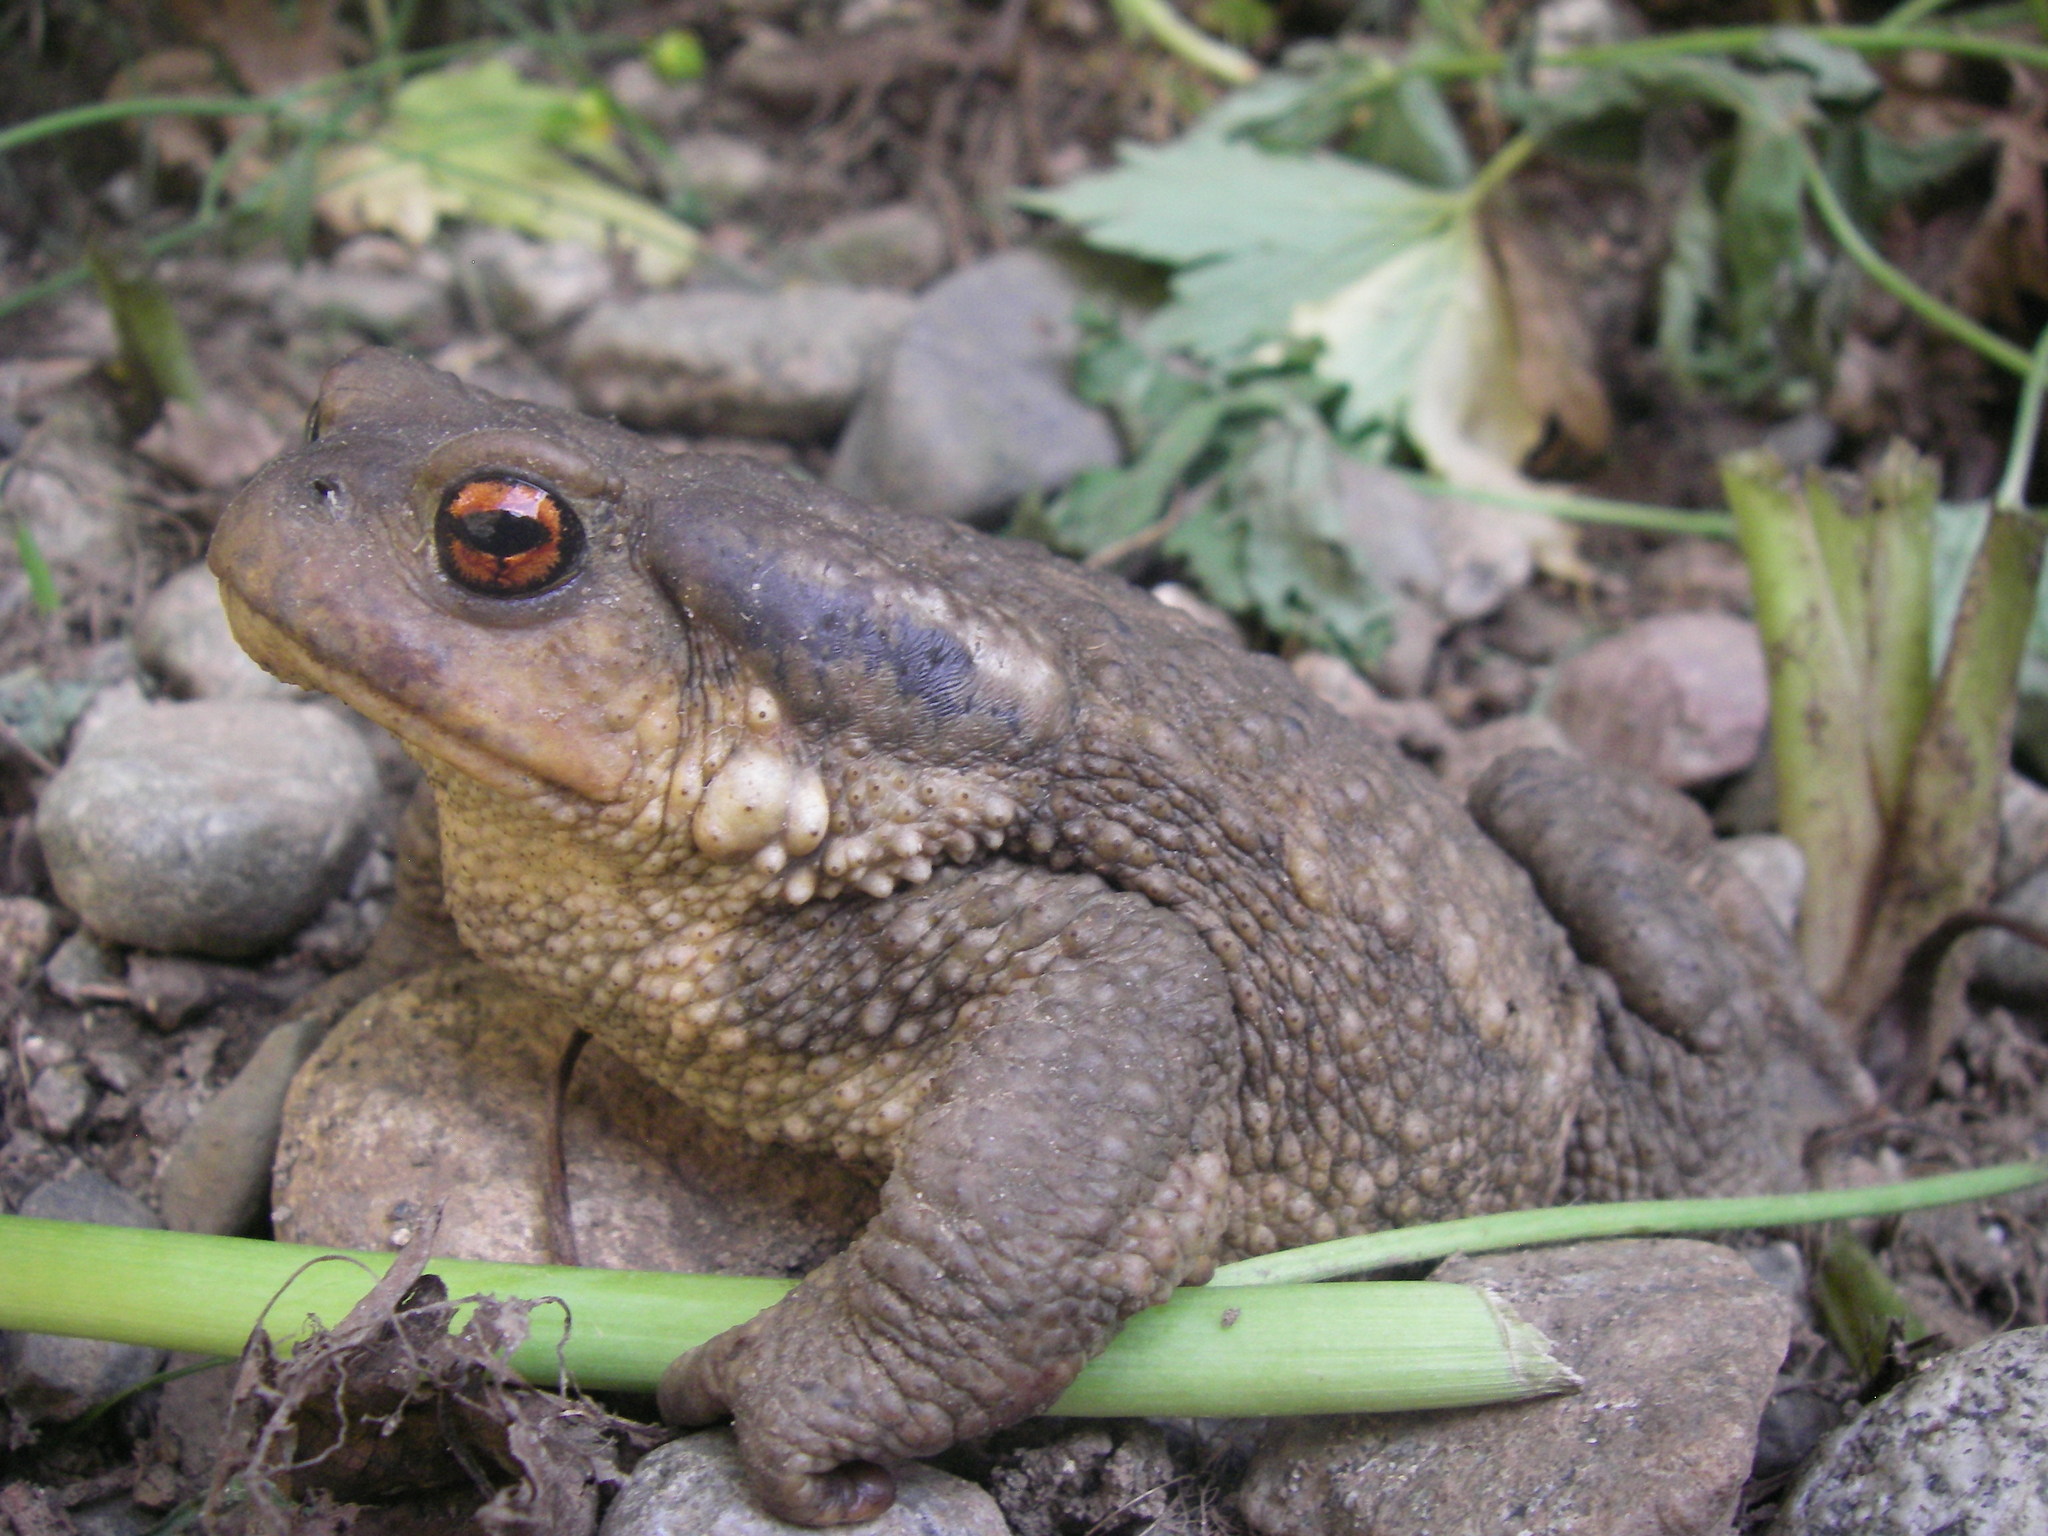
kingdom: Animalia
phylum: Chordata
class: Amphibia
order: Anura
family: Bufonidae
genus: Bufo
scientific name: Bufo spinosus
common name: Western common toad
